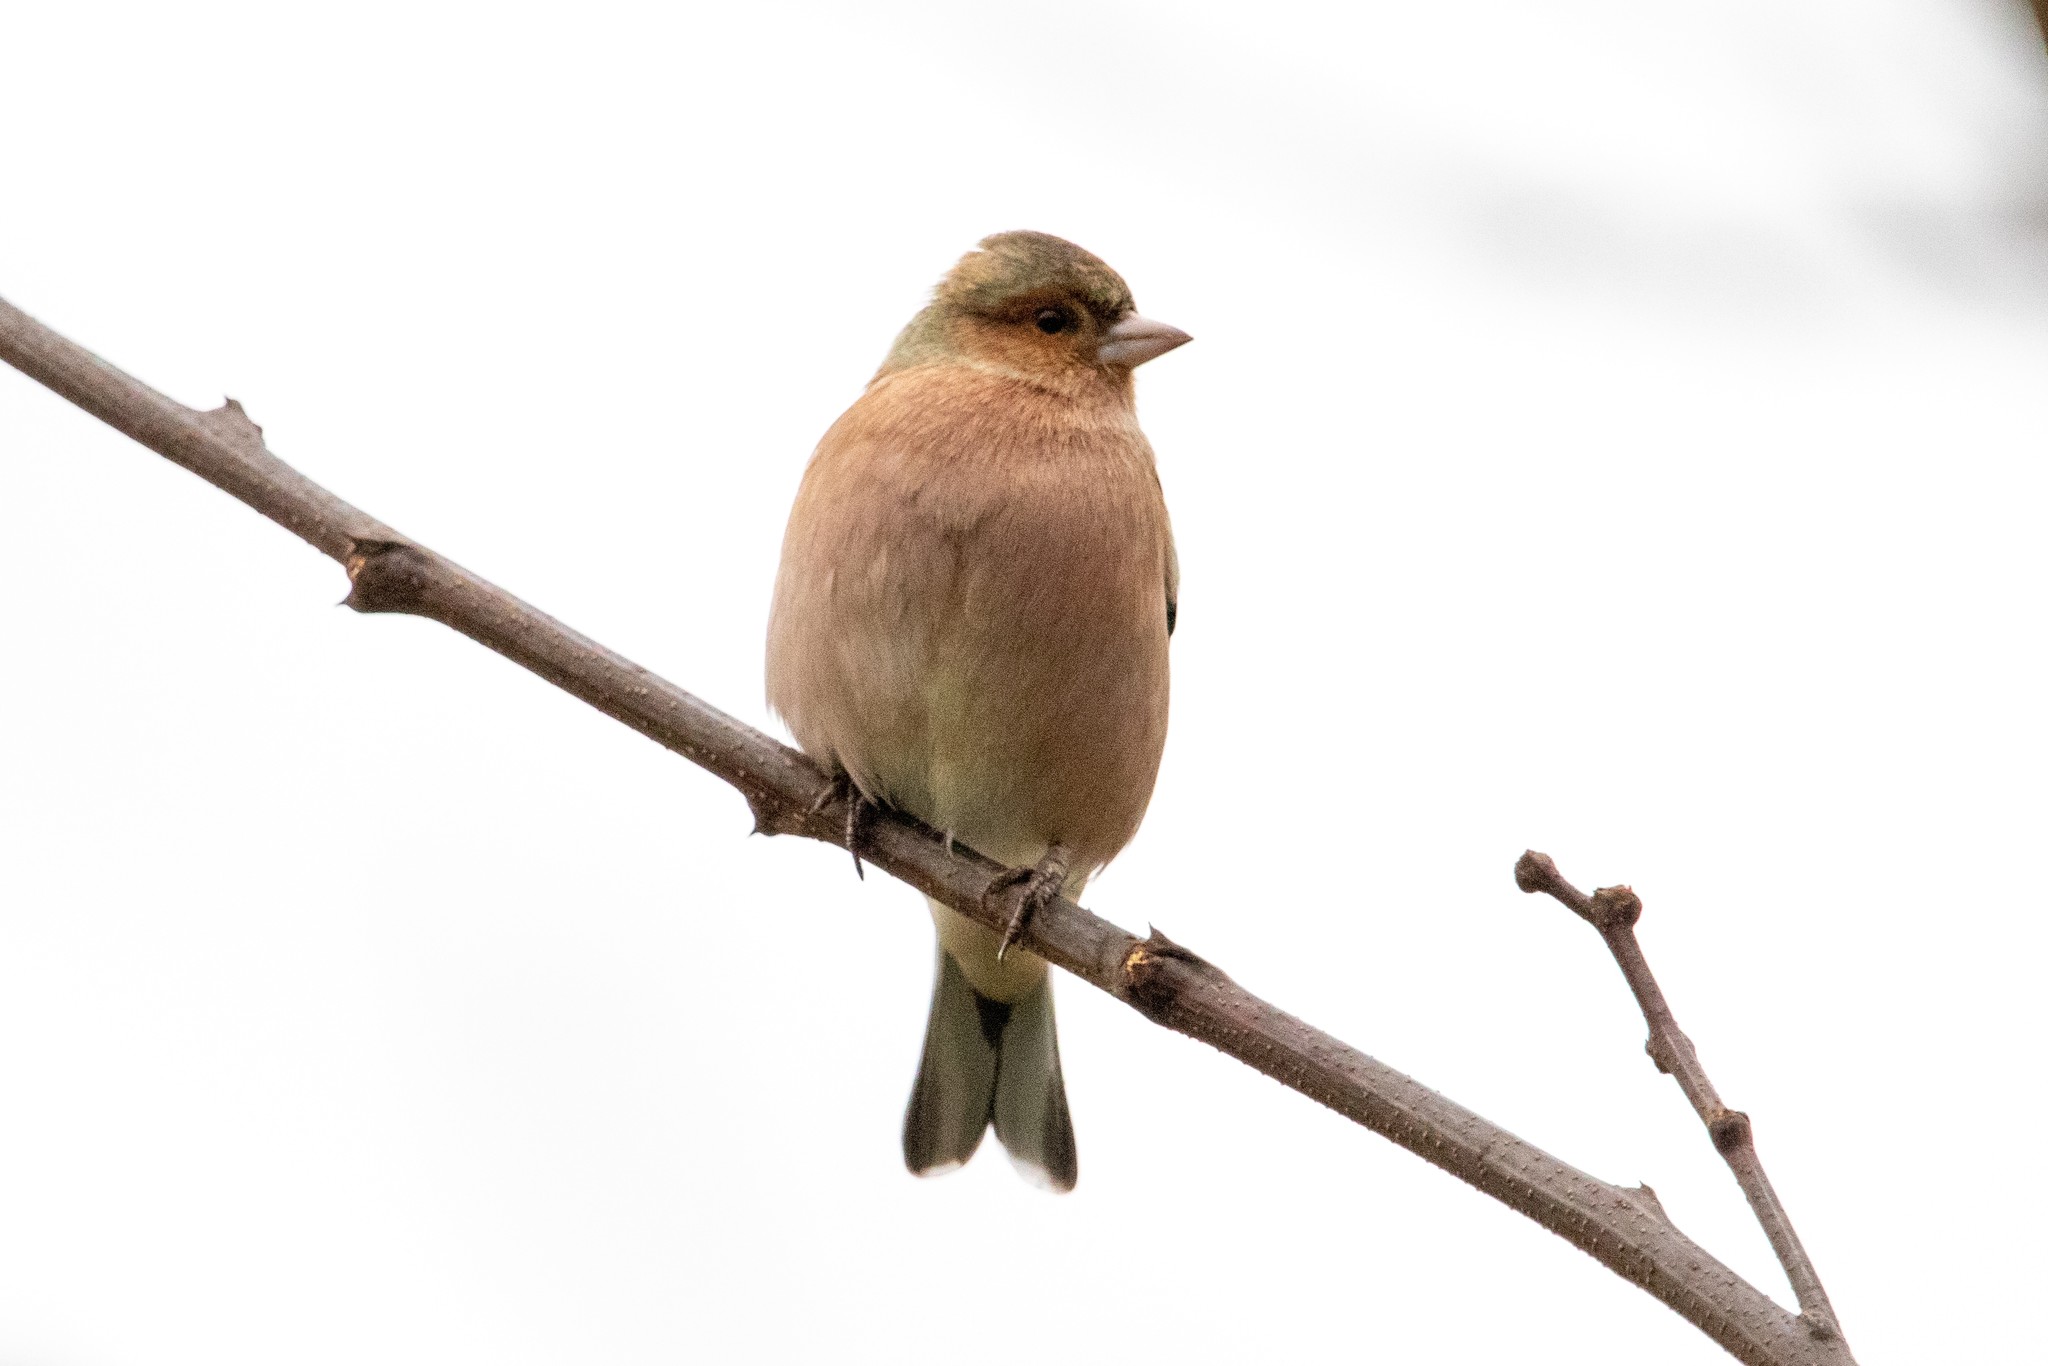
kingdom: Animalia
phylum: Chordata
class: Aves
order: Passeriformes
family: Fringillidae
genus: Fringilla
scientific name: Fringilla coelebs
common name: Common chaffinch
